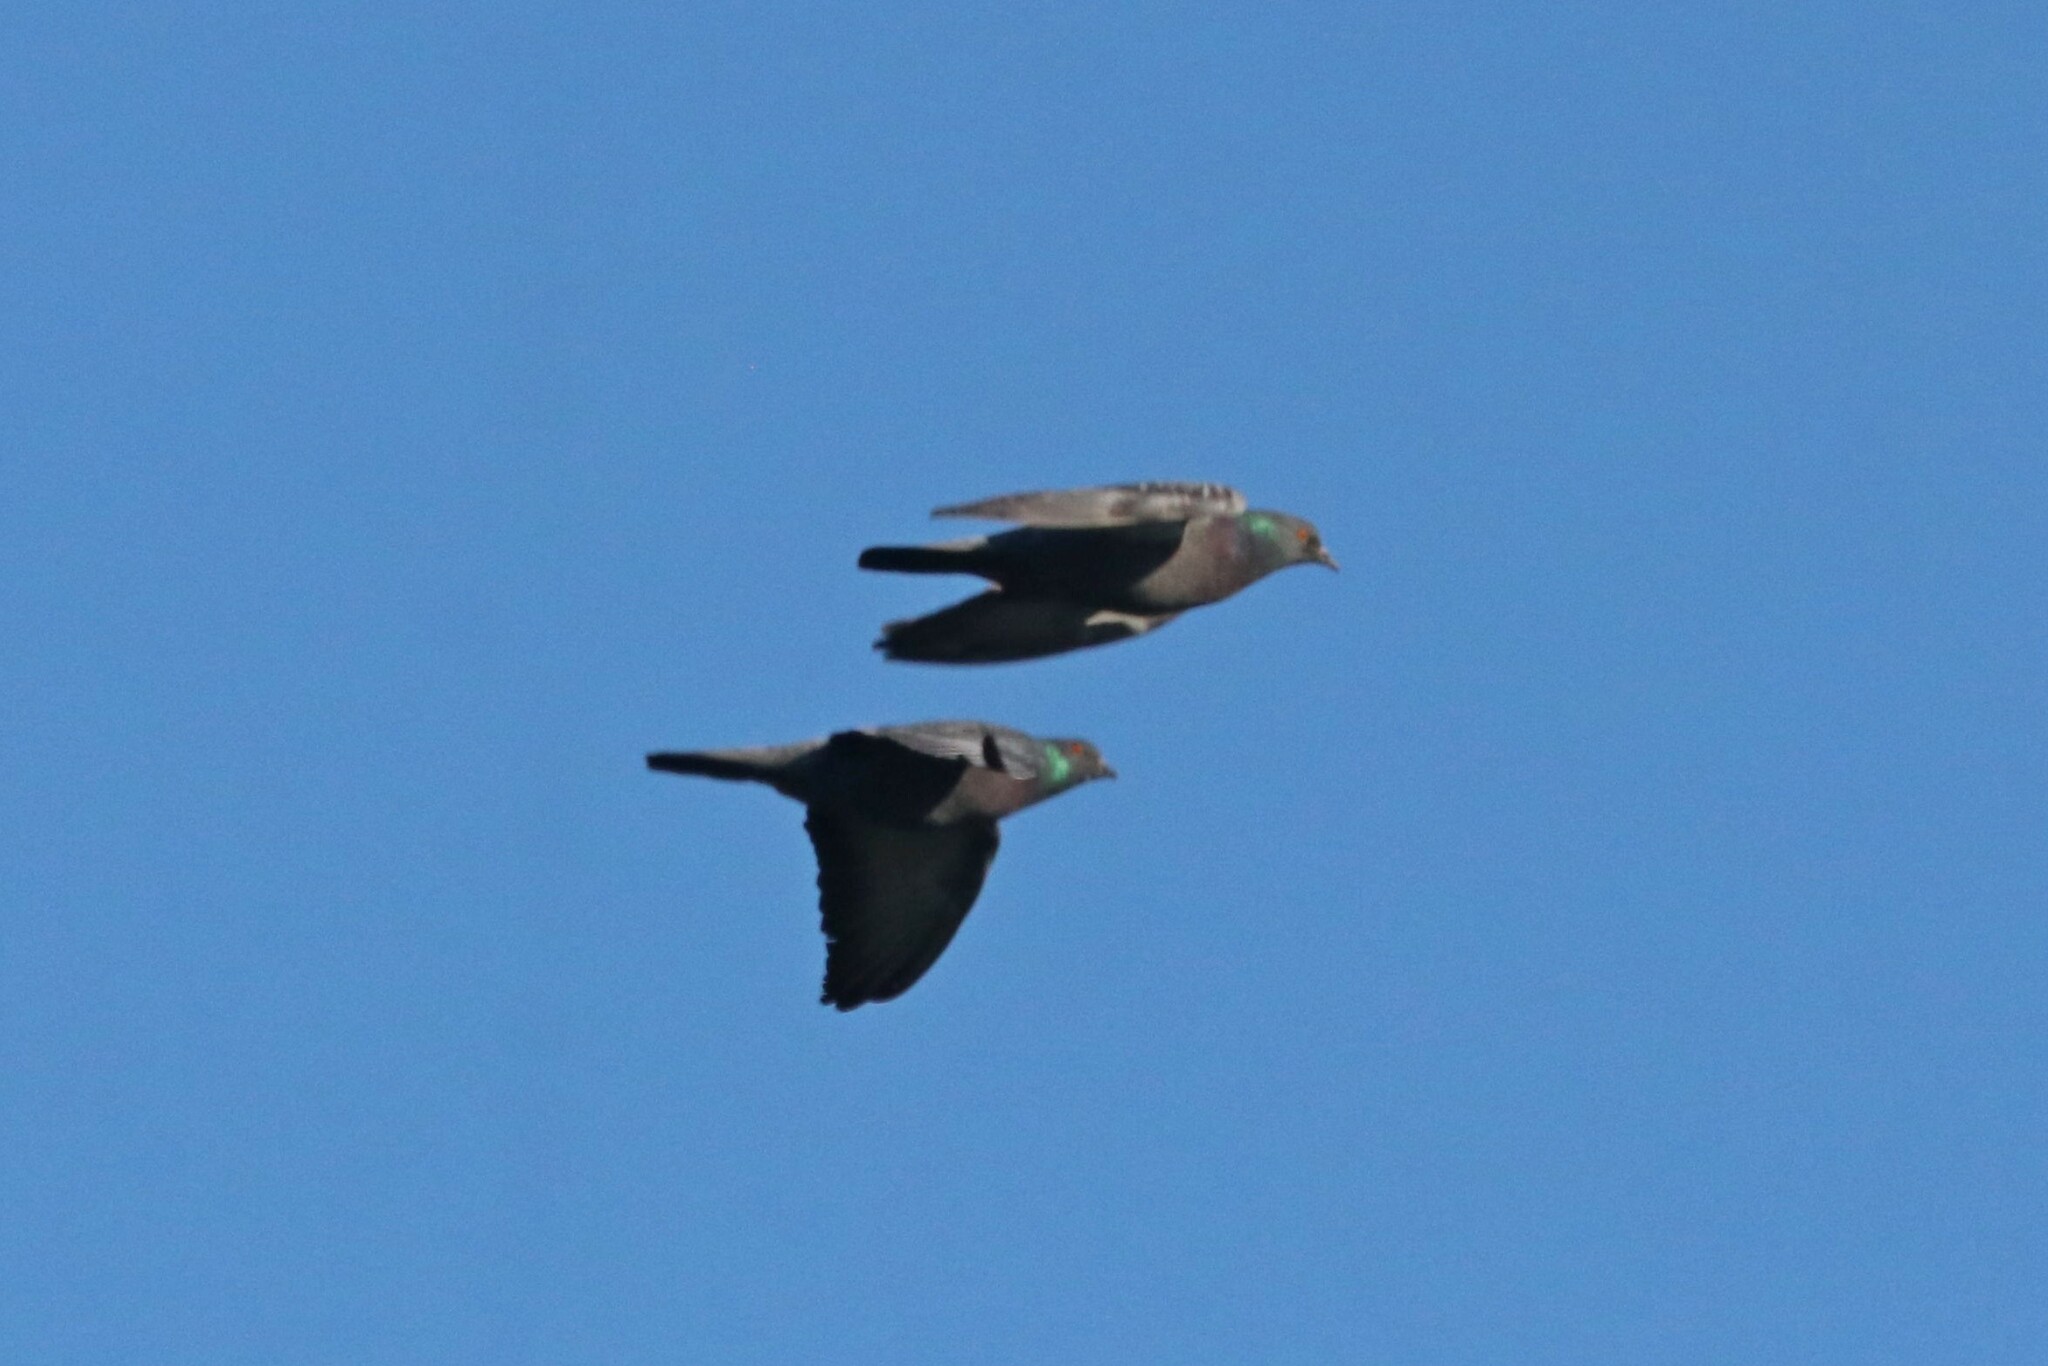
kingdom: Animalia
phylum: Chordata
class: Aves
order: Columbiformes
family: Columbidae
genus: Columba
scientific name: Columba livia
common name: Rock pigeon
